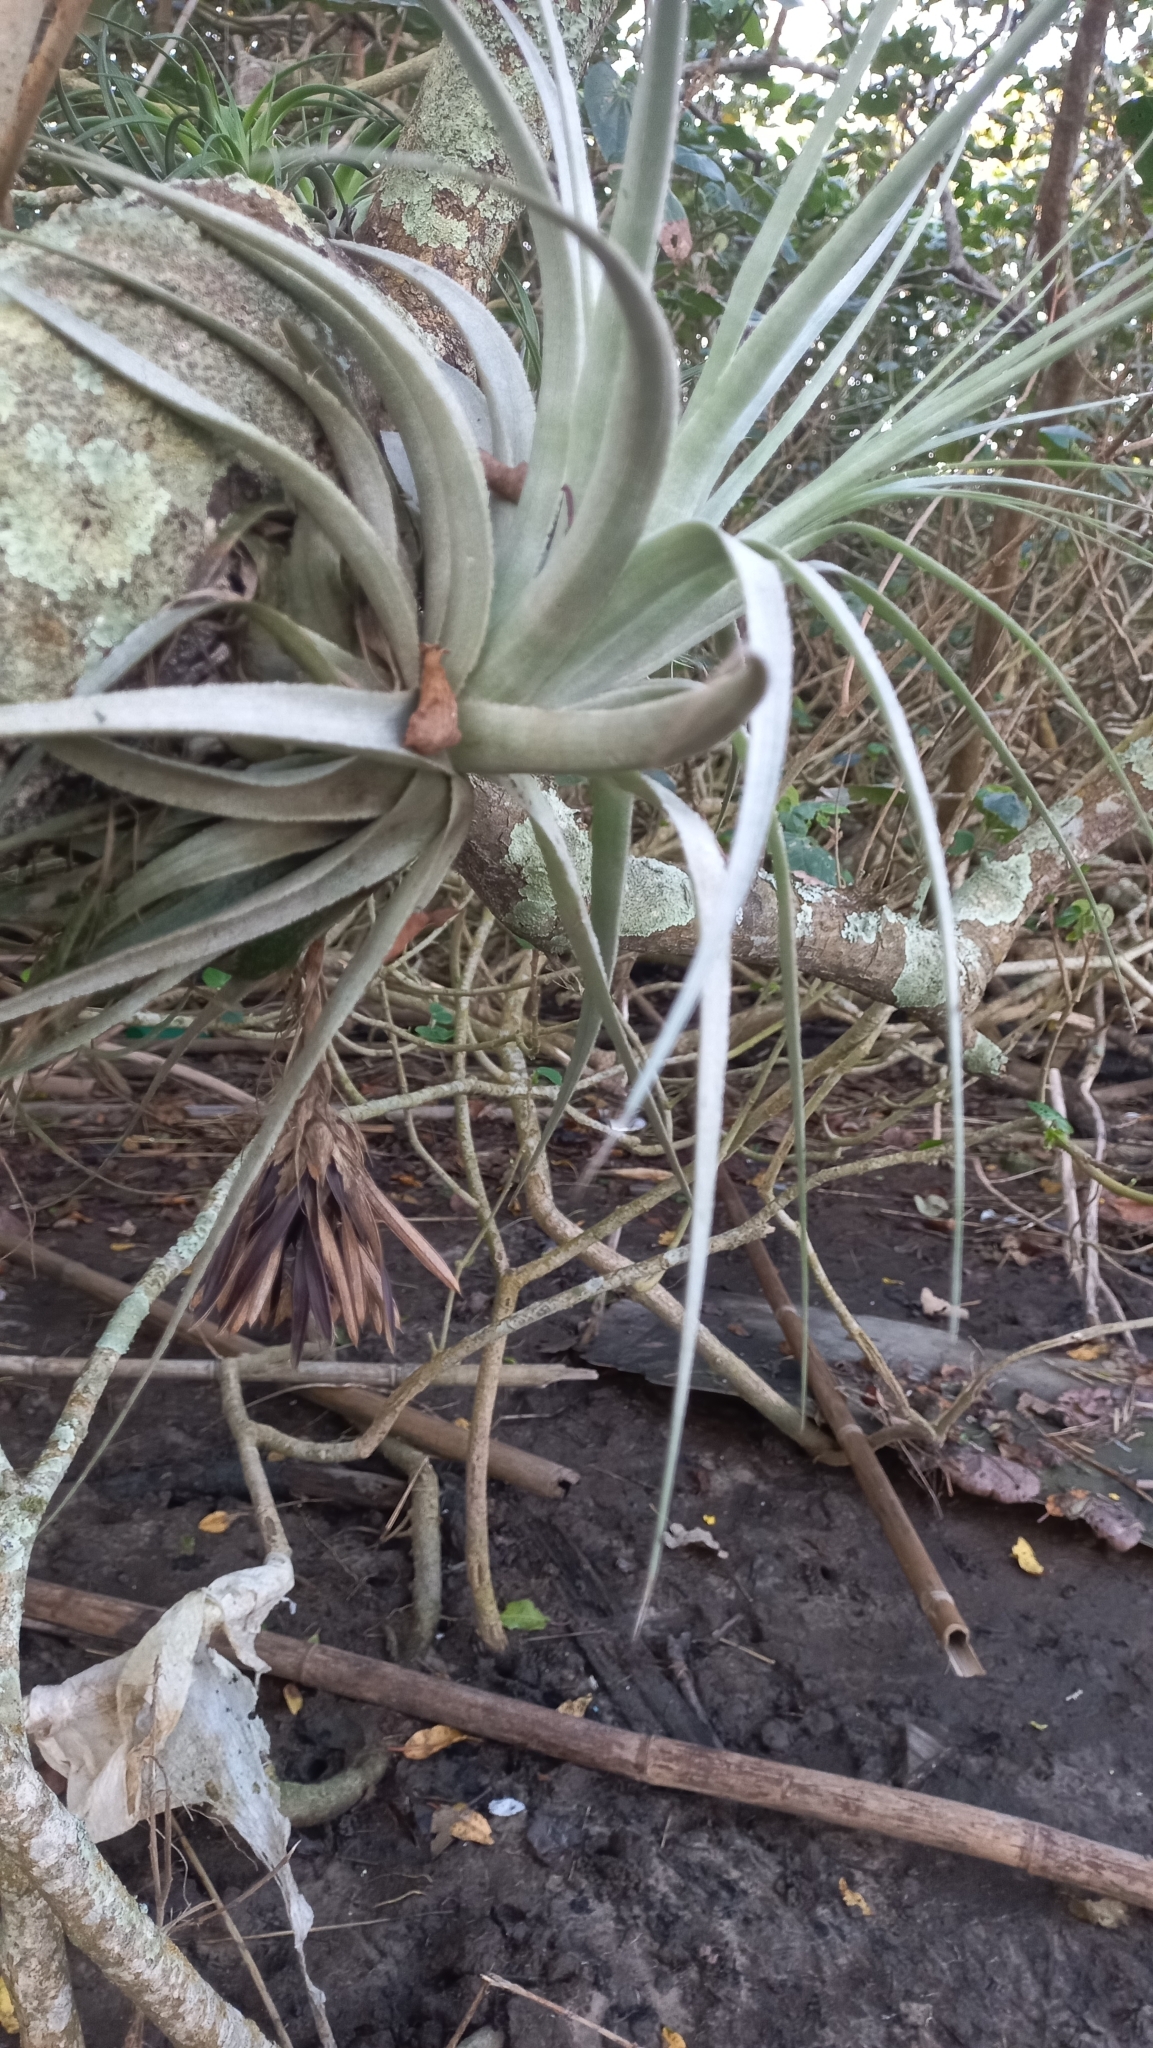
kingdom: Plantae
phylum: Tracheophyta
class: Liliopsida
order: Poales
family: Bromeliaceae
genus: Tillandsia
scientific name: Tillandsia gardneri
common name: Airplant
